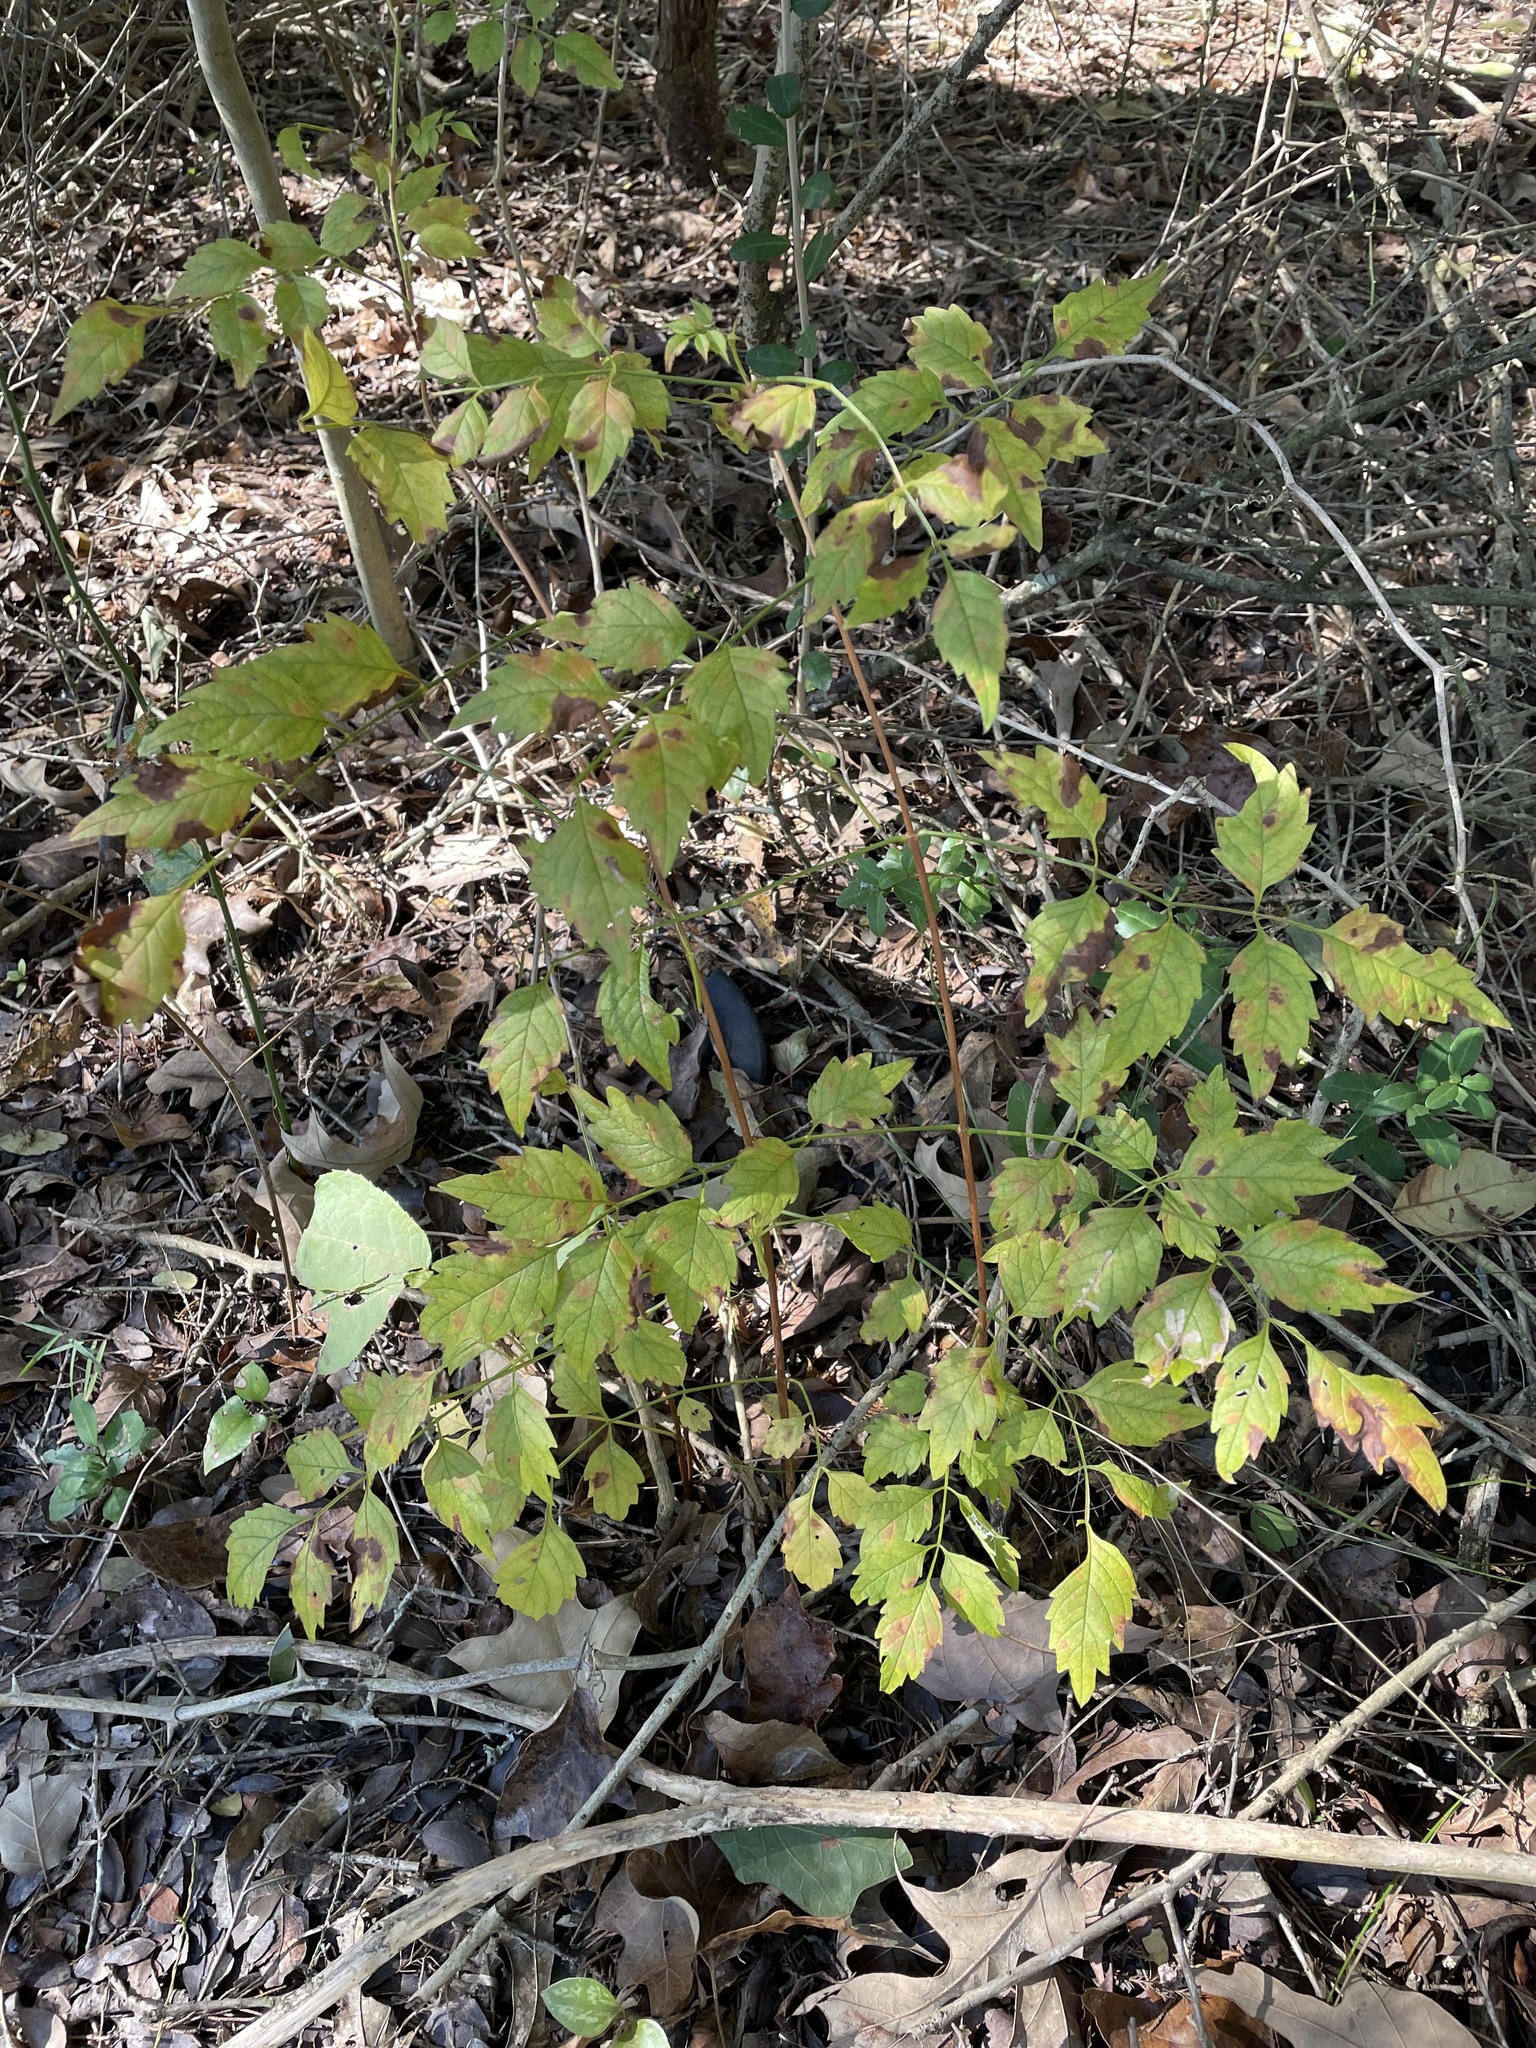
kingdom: Plantae
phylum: Tracheophyta
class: Magnoliopsida
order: Lamiales
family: Bignoniaceae
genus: Campsis
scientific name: Campsis radicans
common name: Trumpet-creeper
